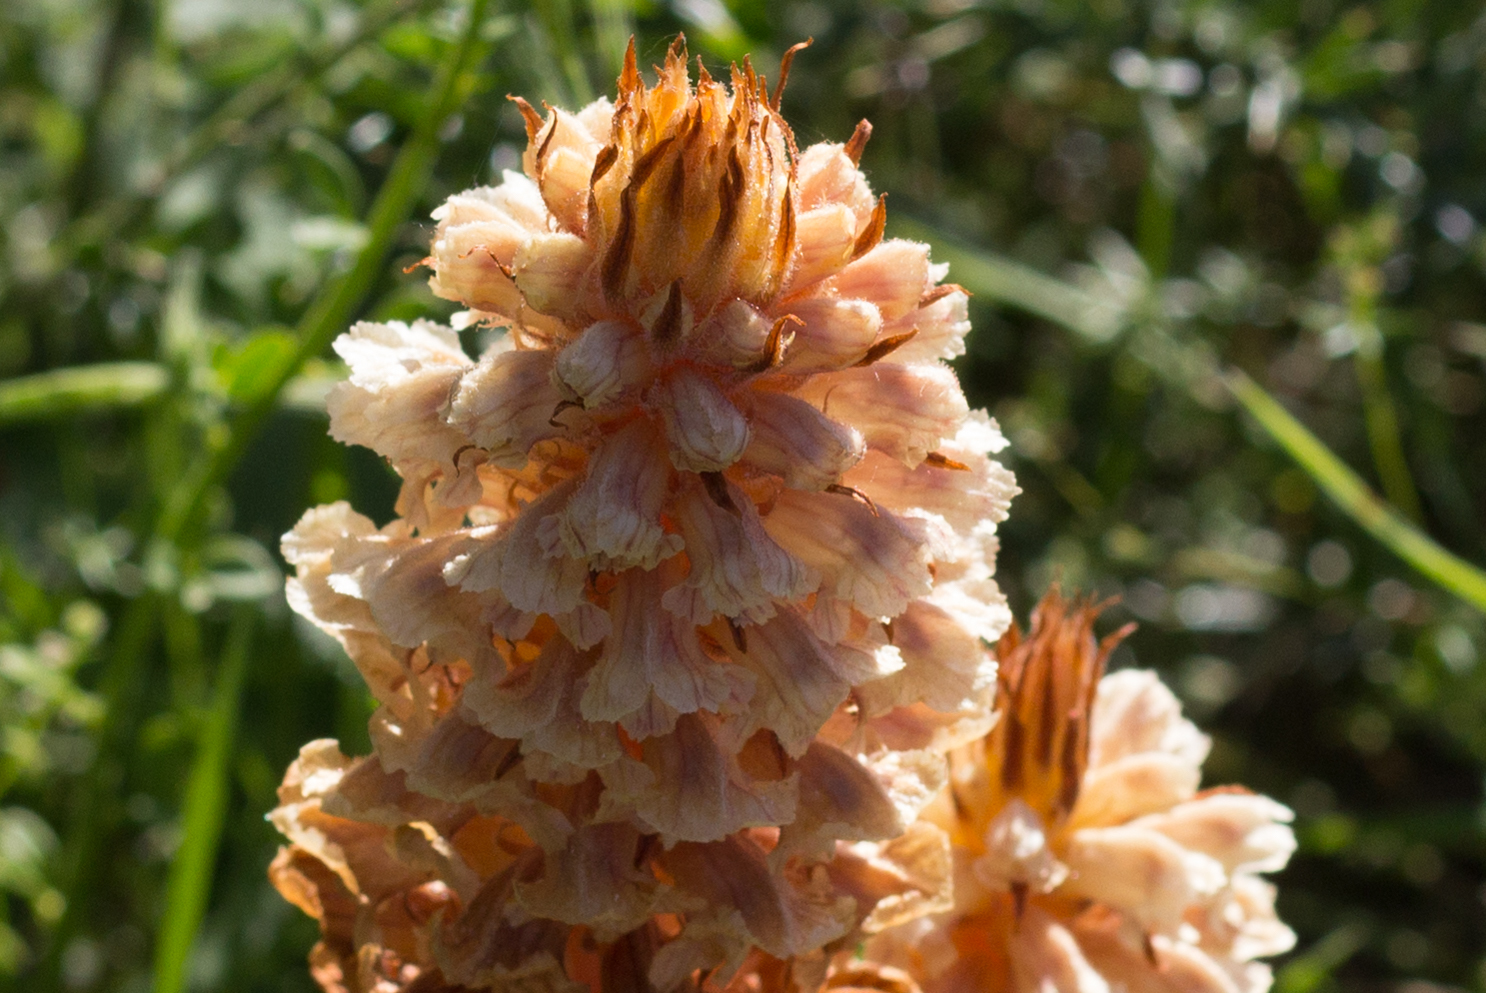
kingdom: Plantae
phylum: Tracheophyta
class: Magnoliopsida
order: Lamiales
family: Orobanchaceae
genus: Orobanche
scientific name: Orobanche amethystea
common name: Amethyst broomrape
